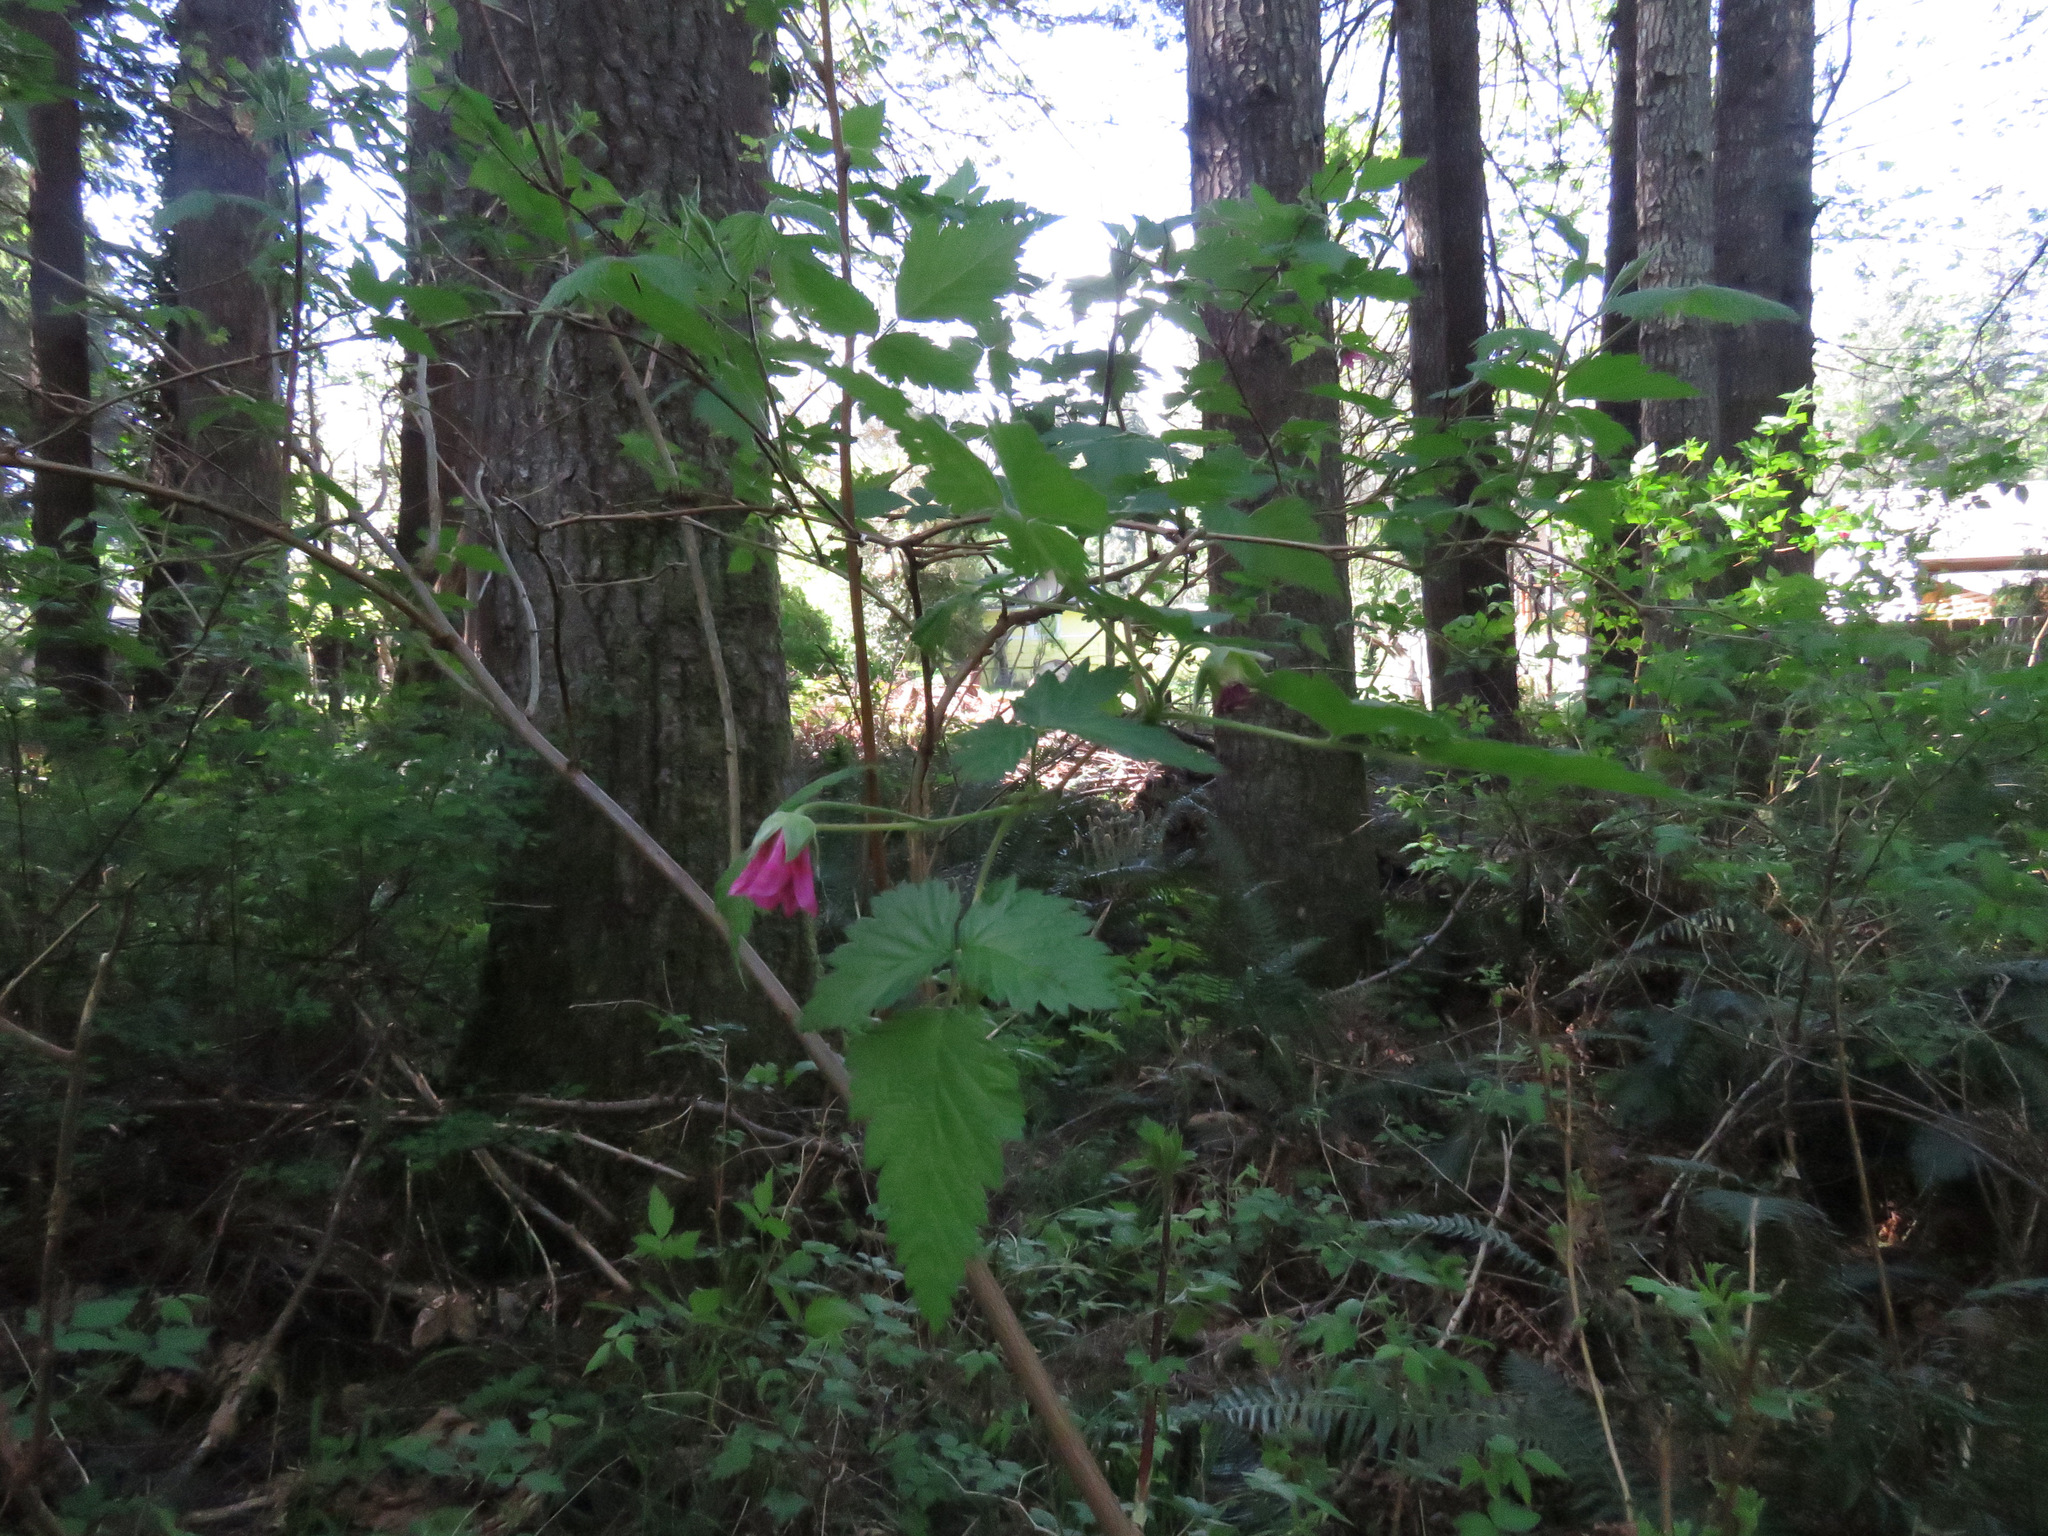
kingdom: Plantae
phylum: Tracheophyta
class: Magnoliopsida
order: Rosales
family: Rosaceae
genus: Rubus
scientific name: Rubus spectabilis
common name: Salmonberry
